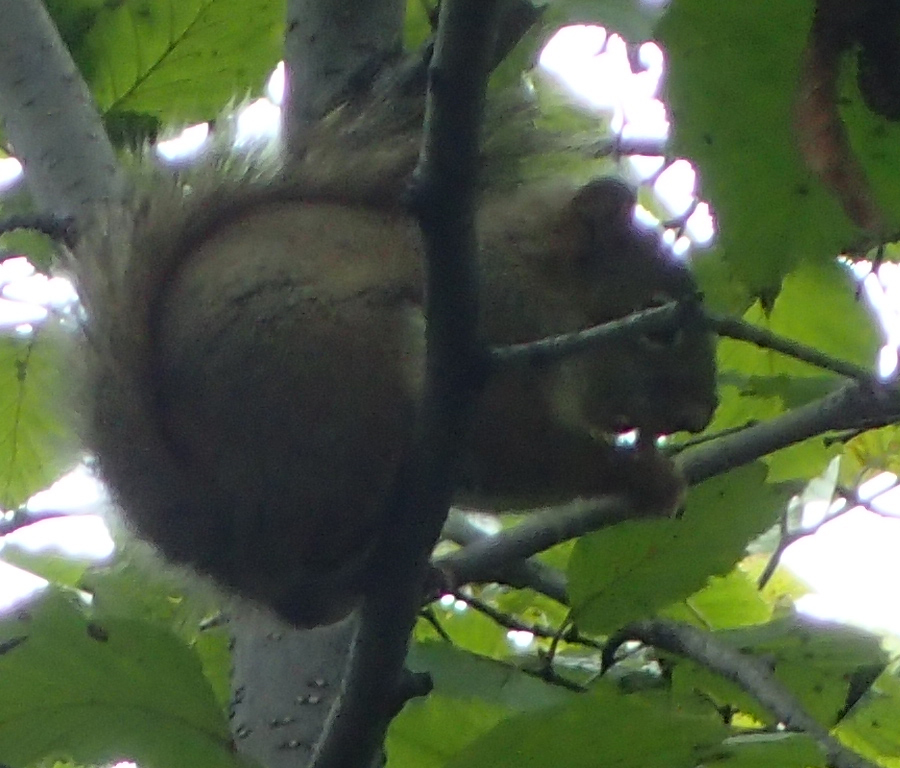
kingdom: Animalia
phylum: Chordata
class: Mammalia
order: Rodentia
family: Sciuridae
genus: Tamiasciurus
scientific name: Tamiasciurus hudsonicus
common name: Red squirrel
